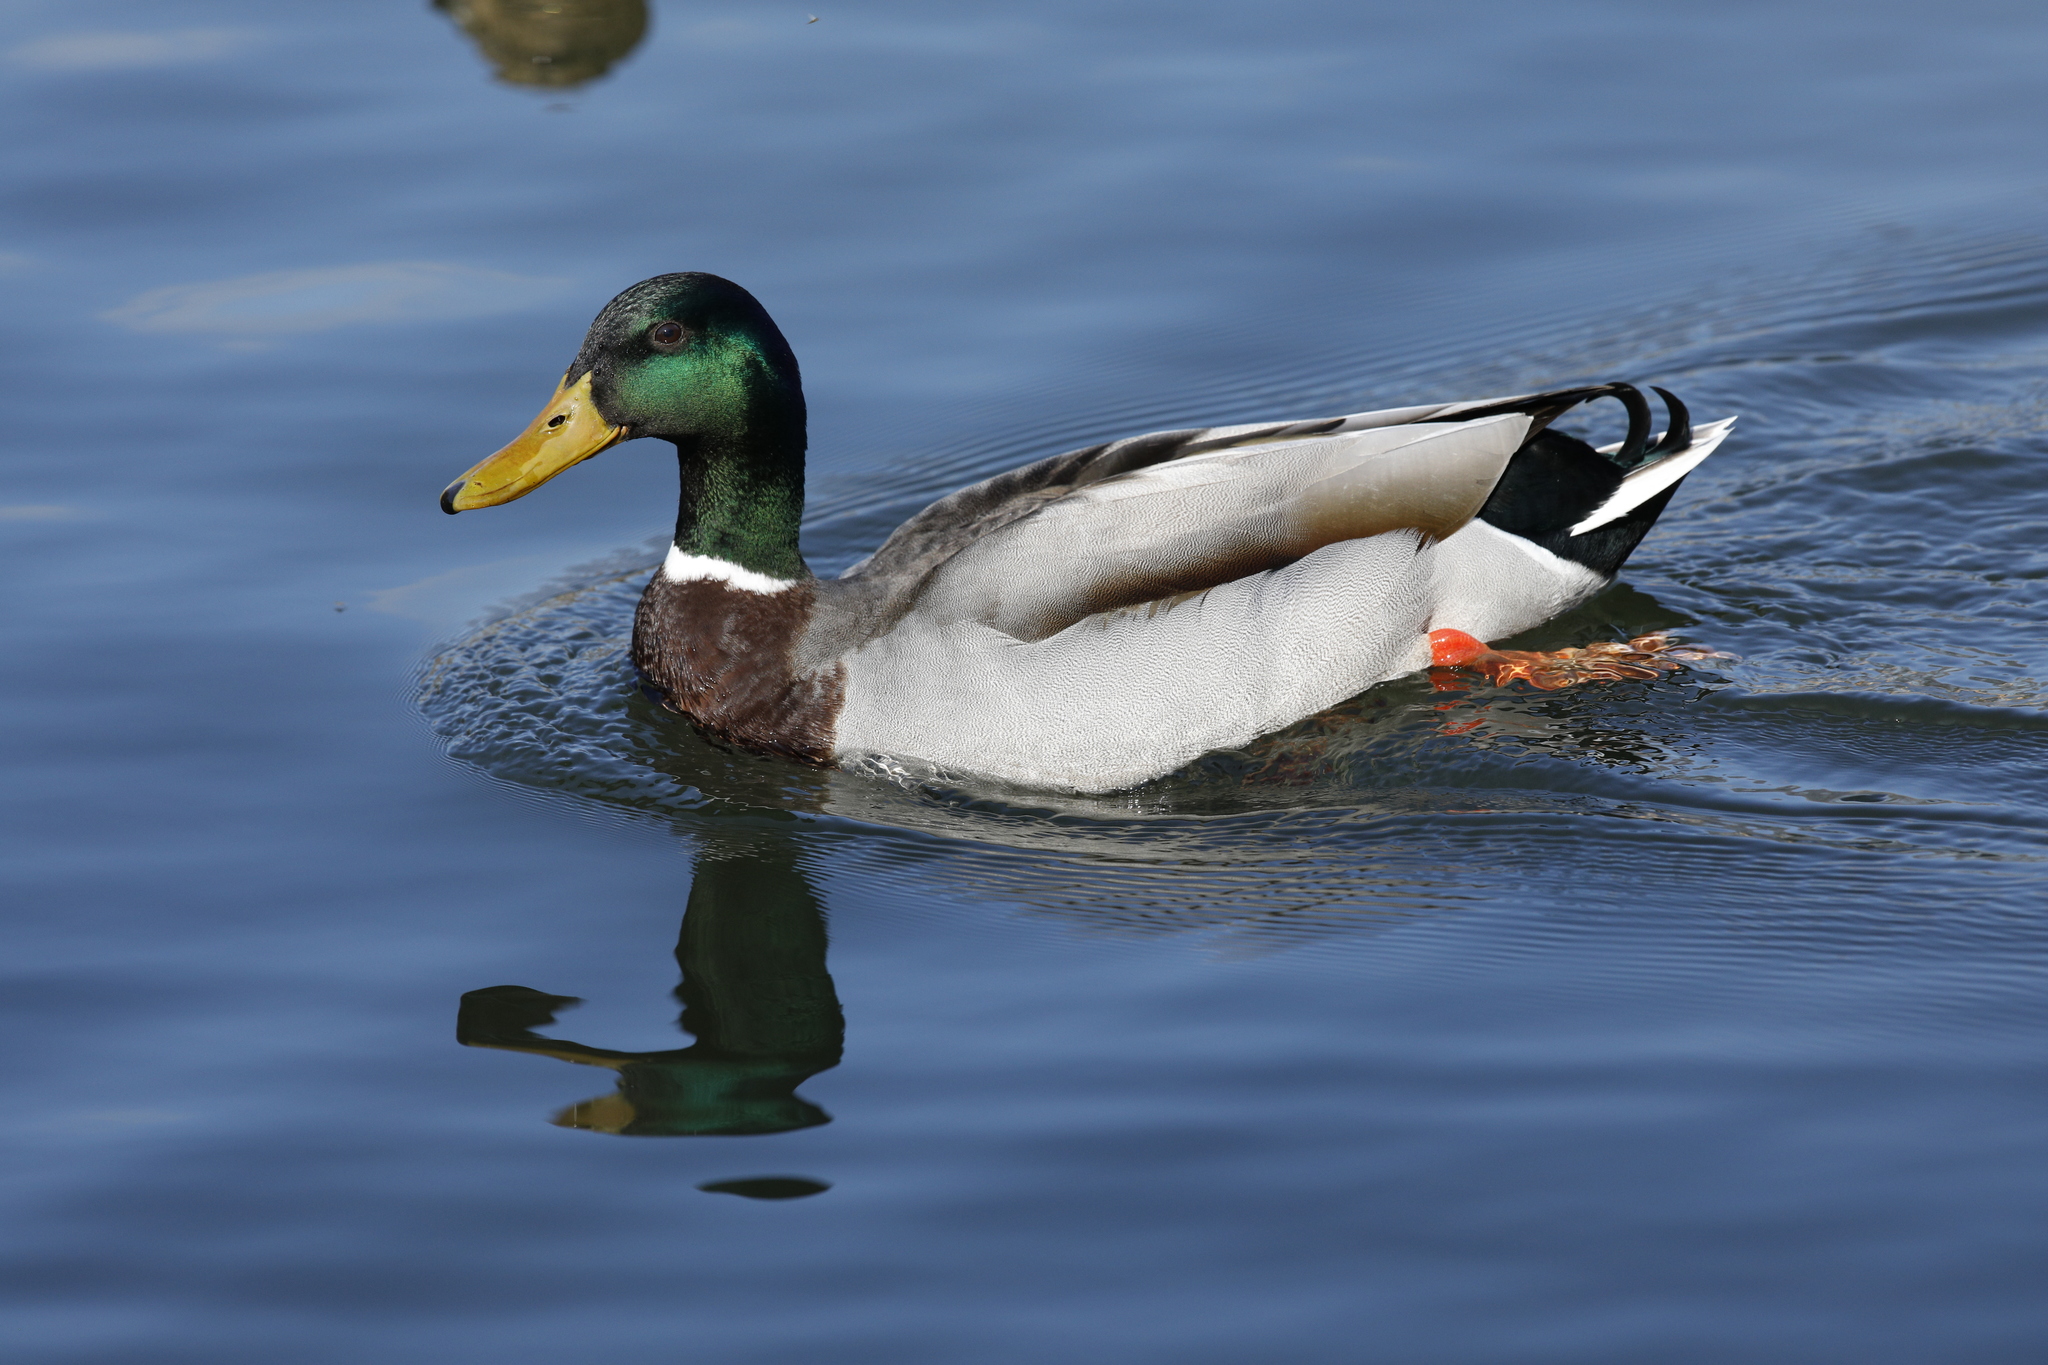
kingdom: Animalia
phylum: Chordata
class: Aves
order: Anseriformes
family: Anatidae
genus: Anas
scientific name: Anas platyrhynchos
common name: Mallard
